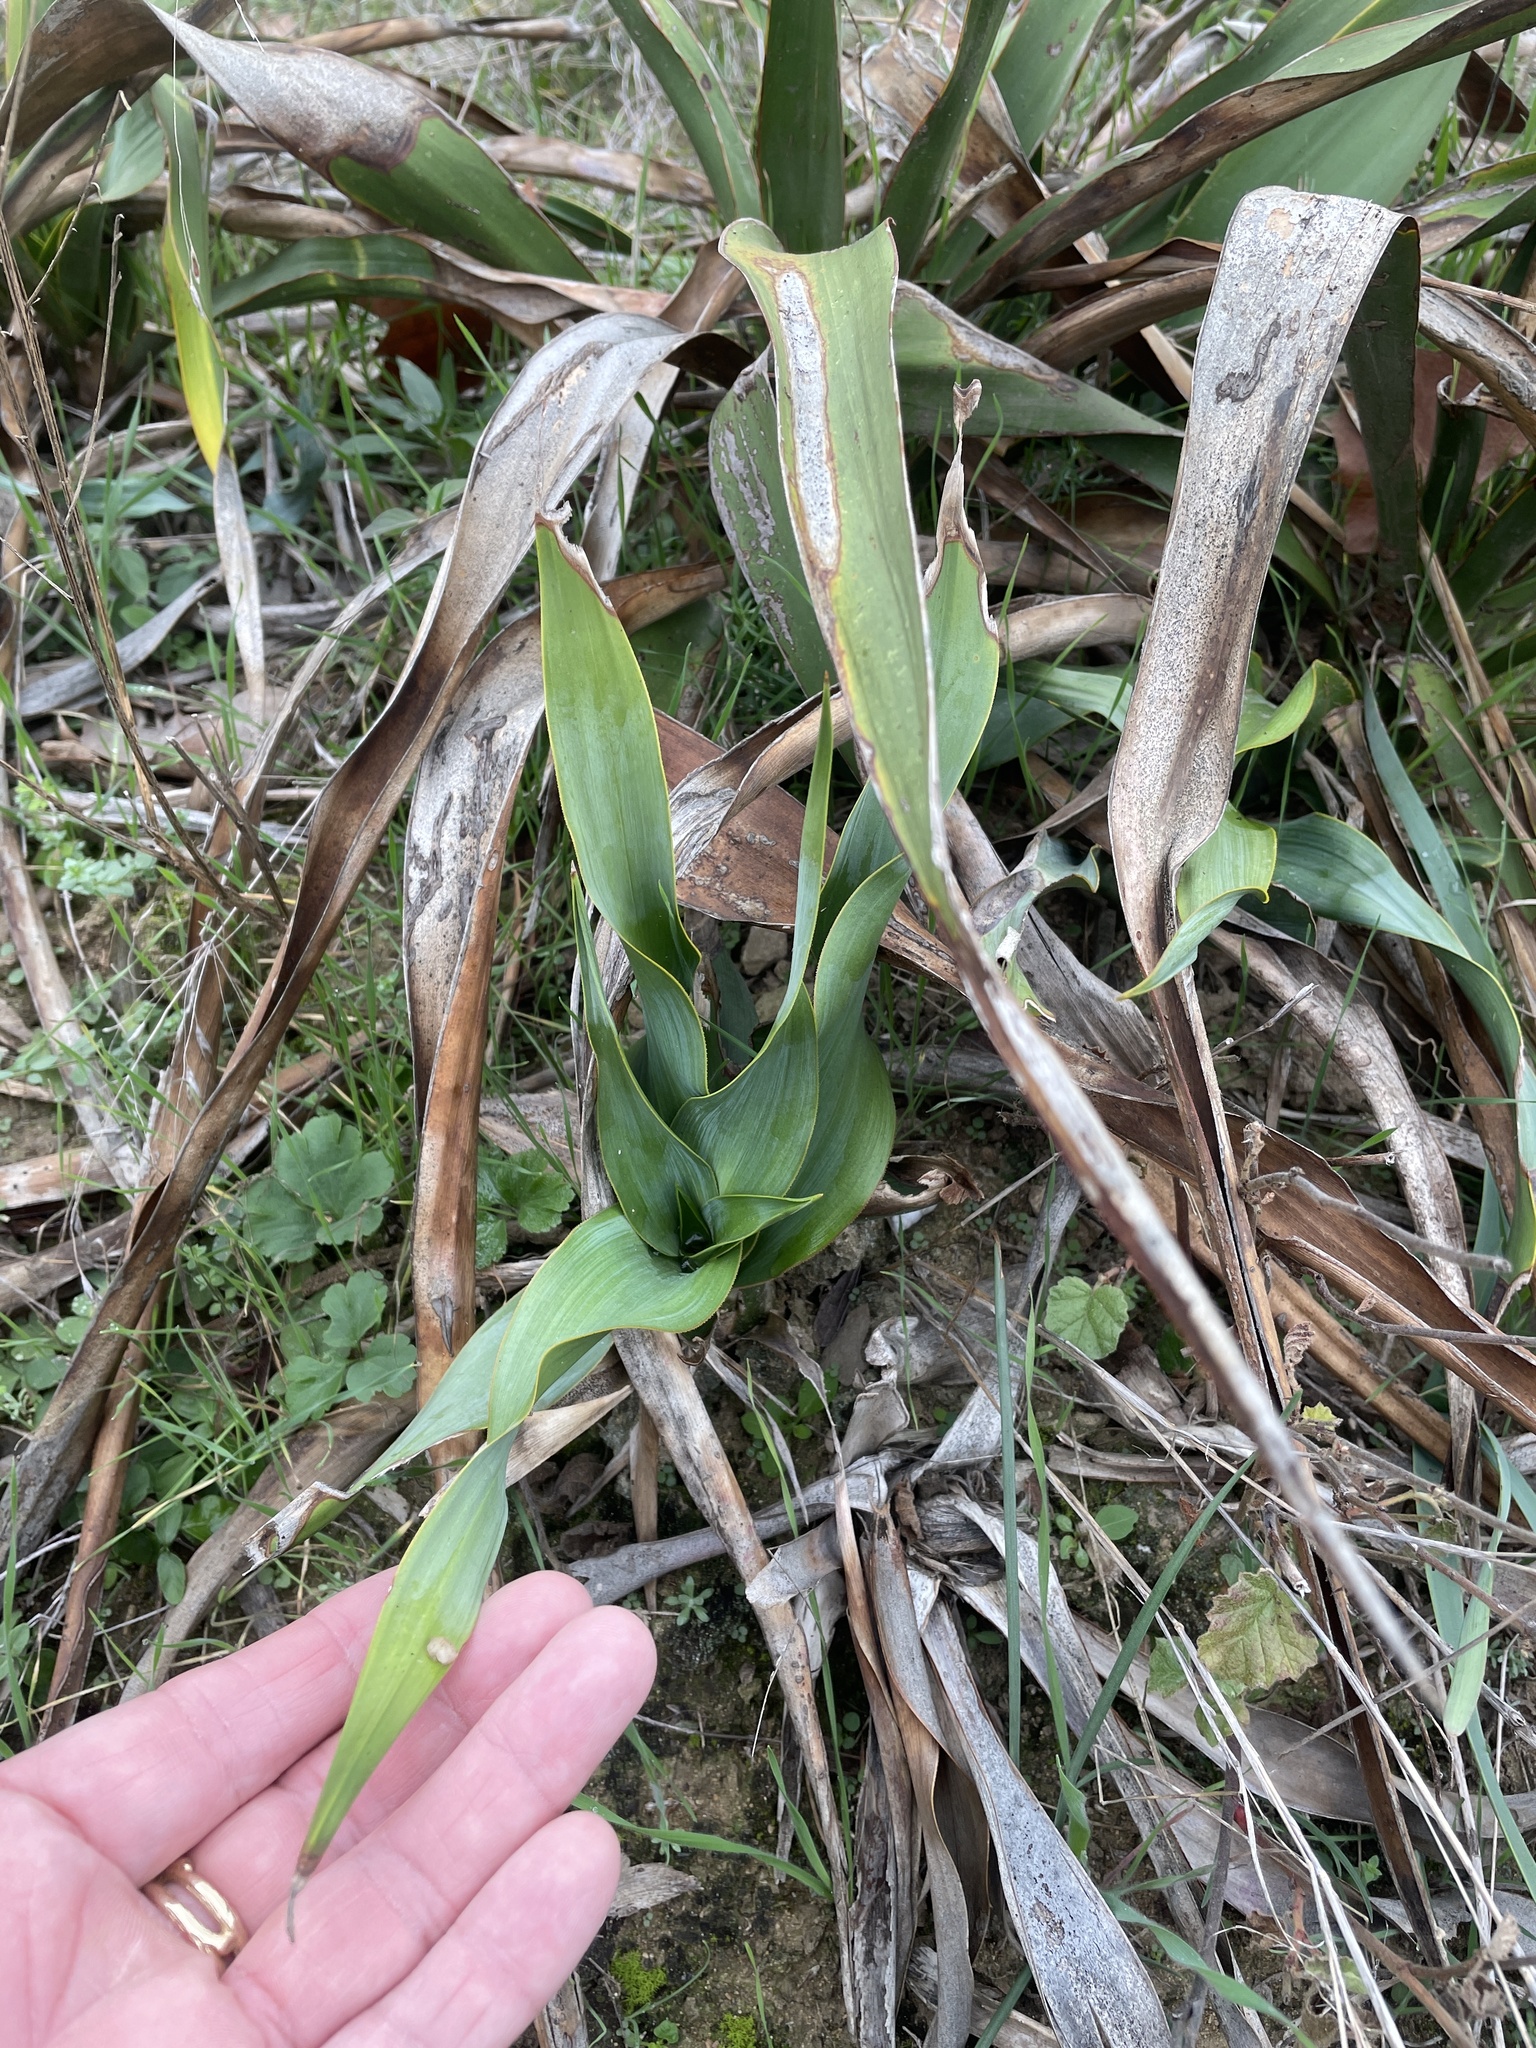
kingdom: Plantae
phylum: Tracheophyta
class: Liliopsida
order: Asparagales
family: Asparagaceae
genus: Yucca
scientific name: Yucca rupicola
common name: Twisted-leaf spanish-dagger
